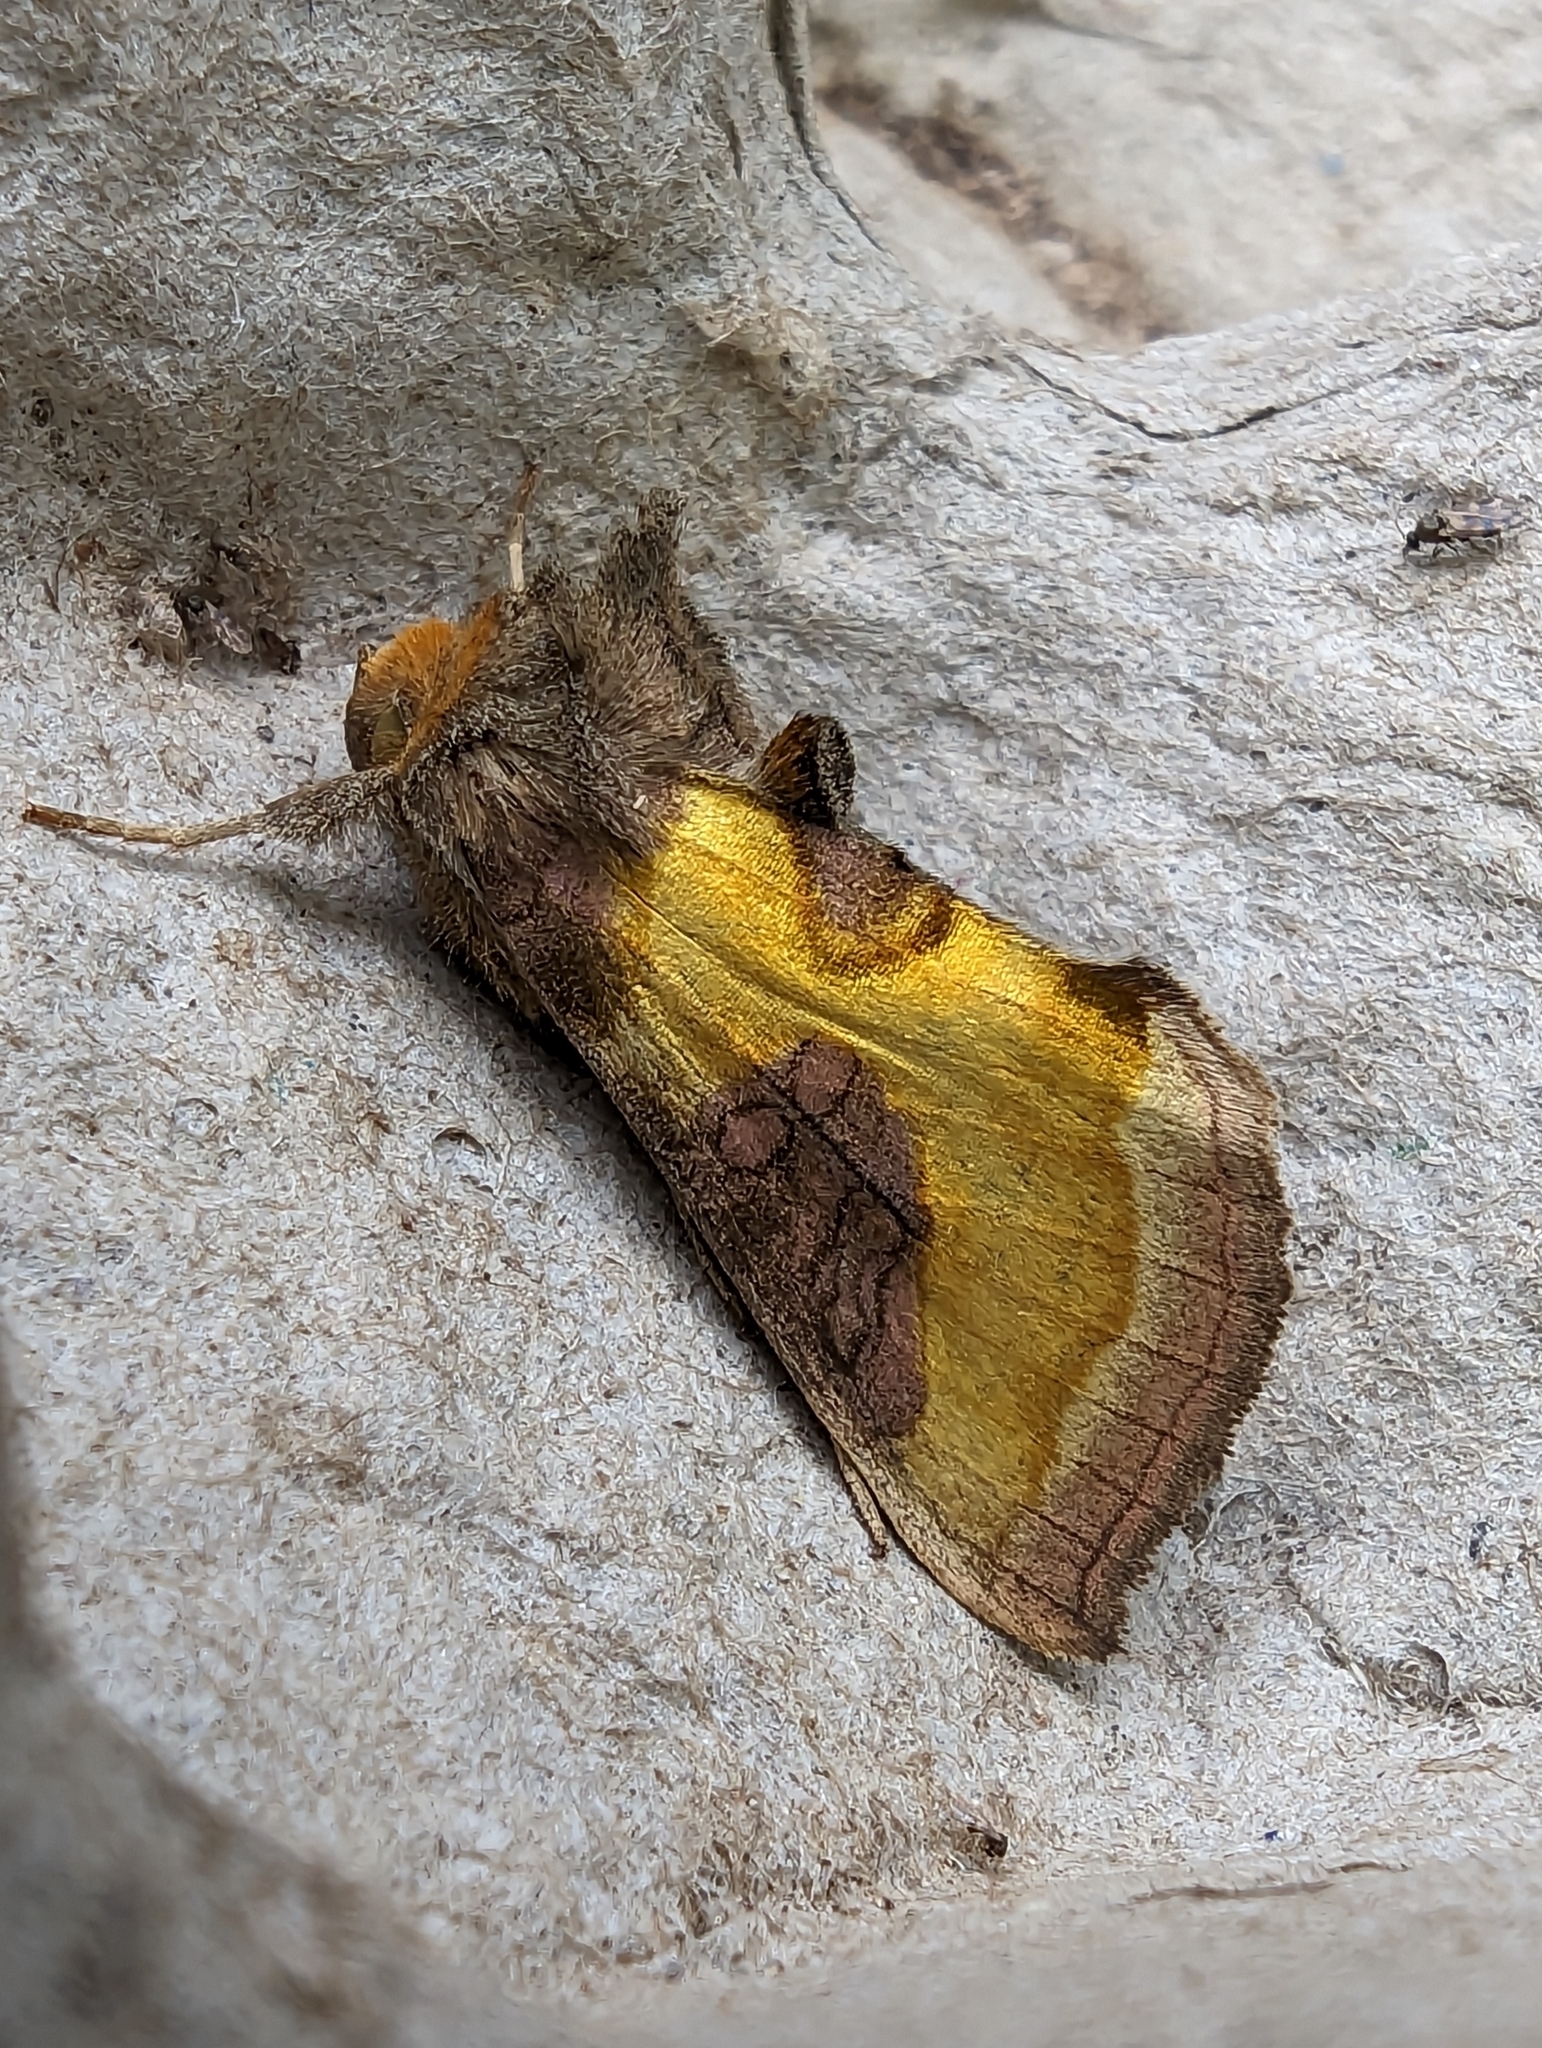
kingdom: Animalia
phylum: Arthropoda
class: Insecta
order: Lepidoptera
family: Noctuidae
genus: Diachrysia
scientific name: Diachrysia chrysitis
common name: Burnished brass
